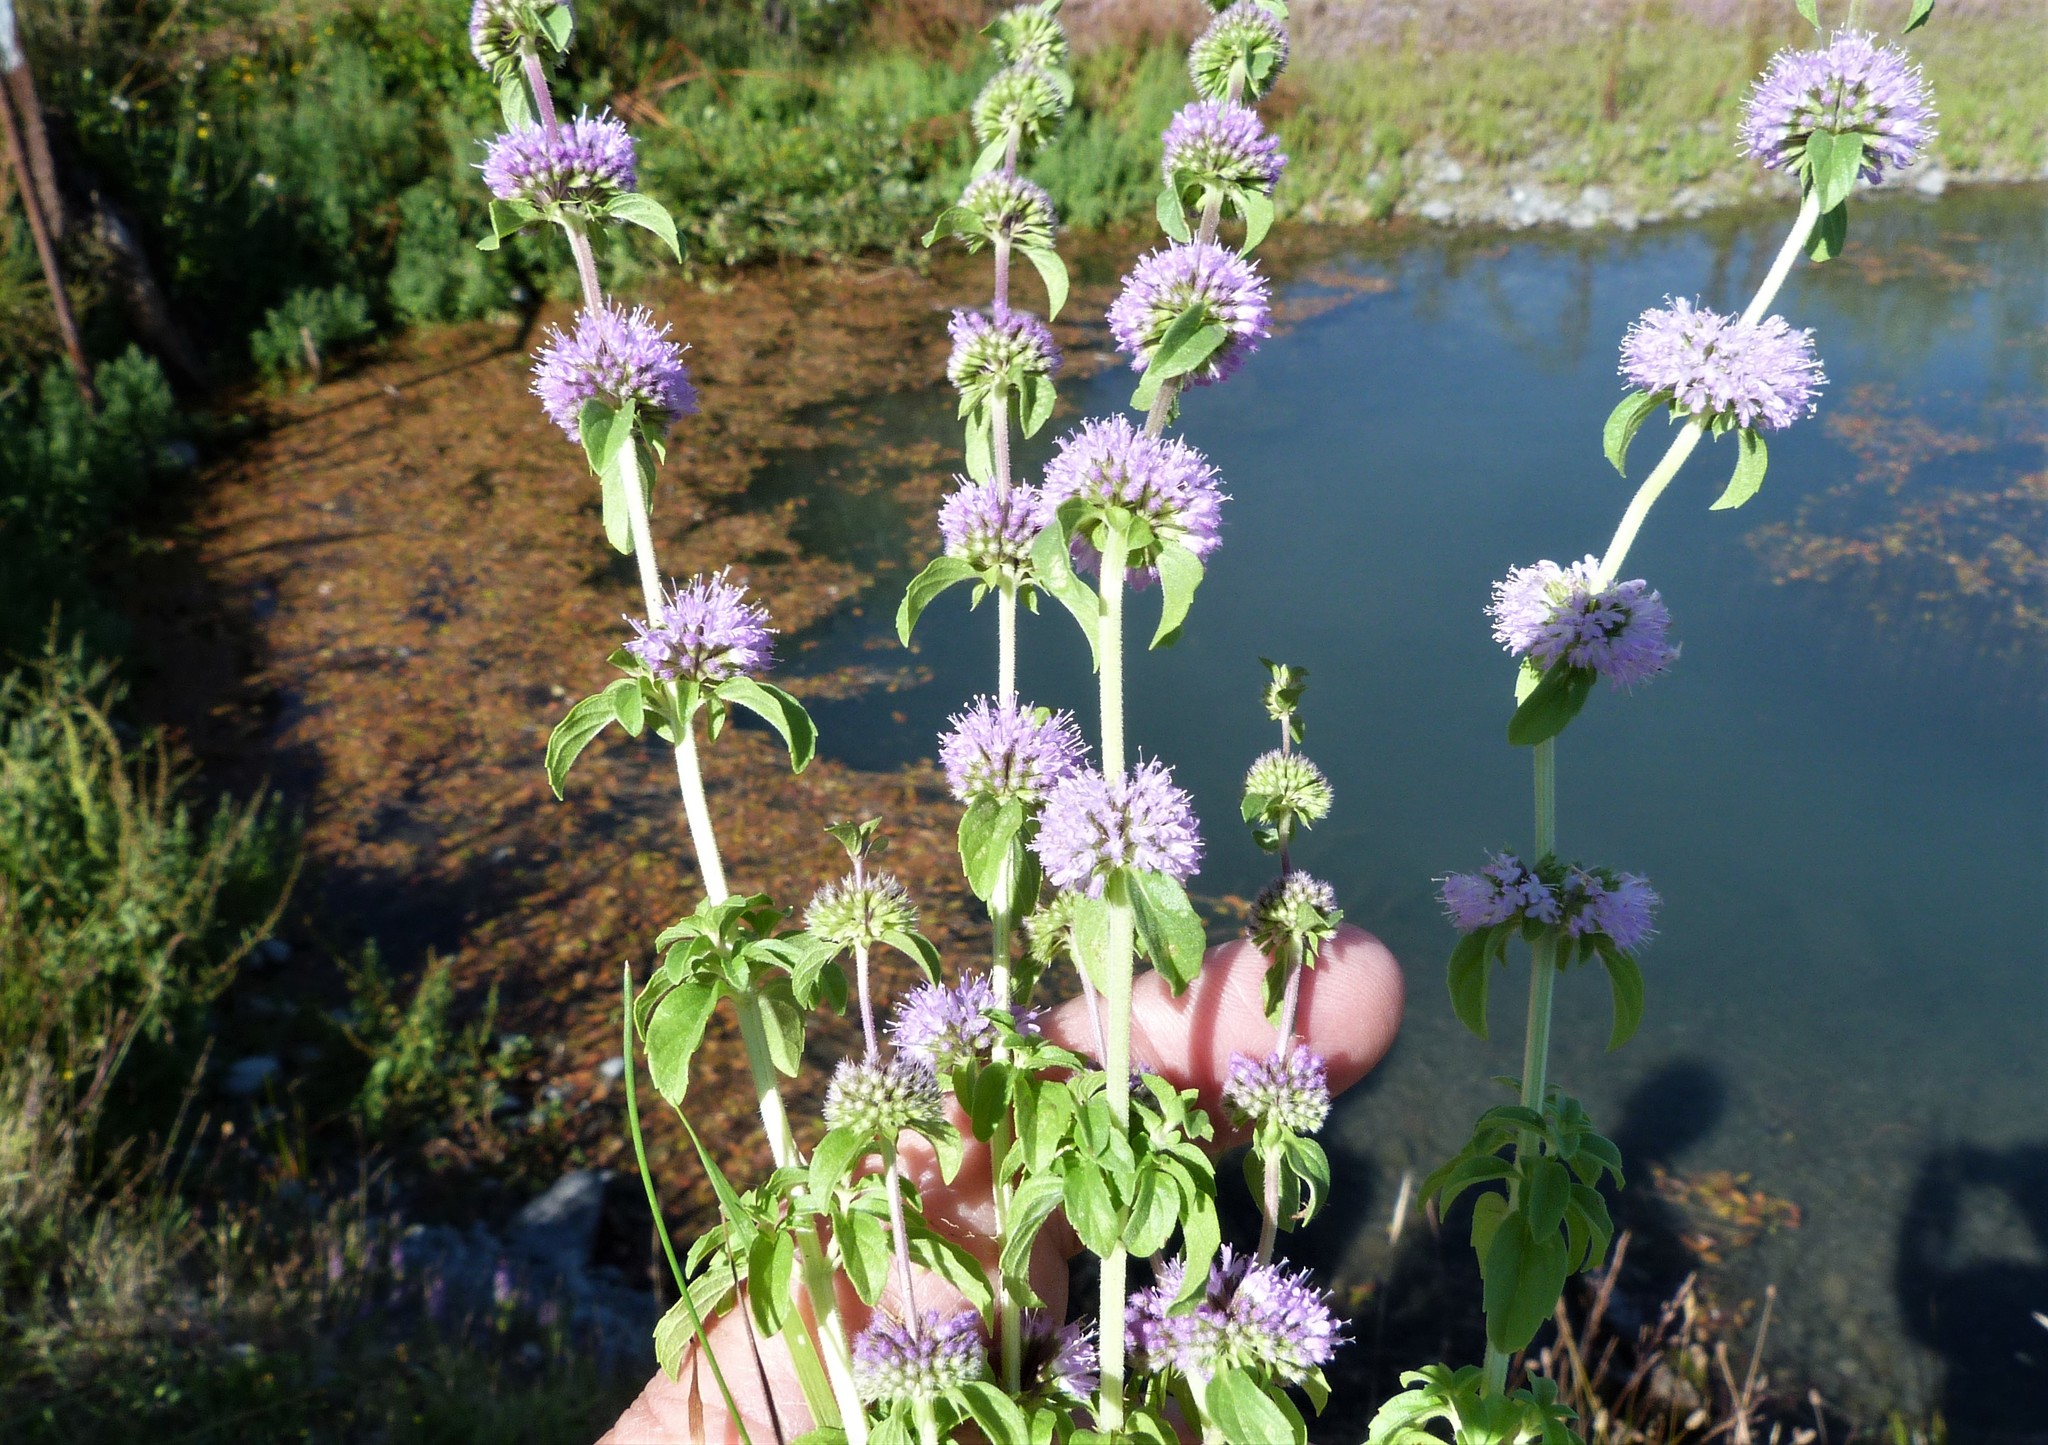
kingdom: Plantae
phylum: Tracheophyta
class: Magnoliopsida
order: Lamiales
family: Lamiaceae
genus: Mentha
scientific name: Mentha pulegium
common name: Pennyroyal
